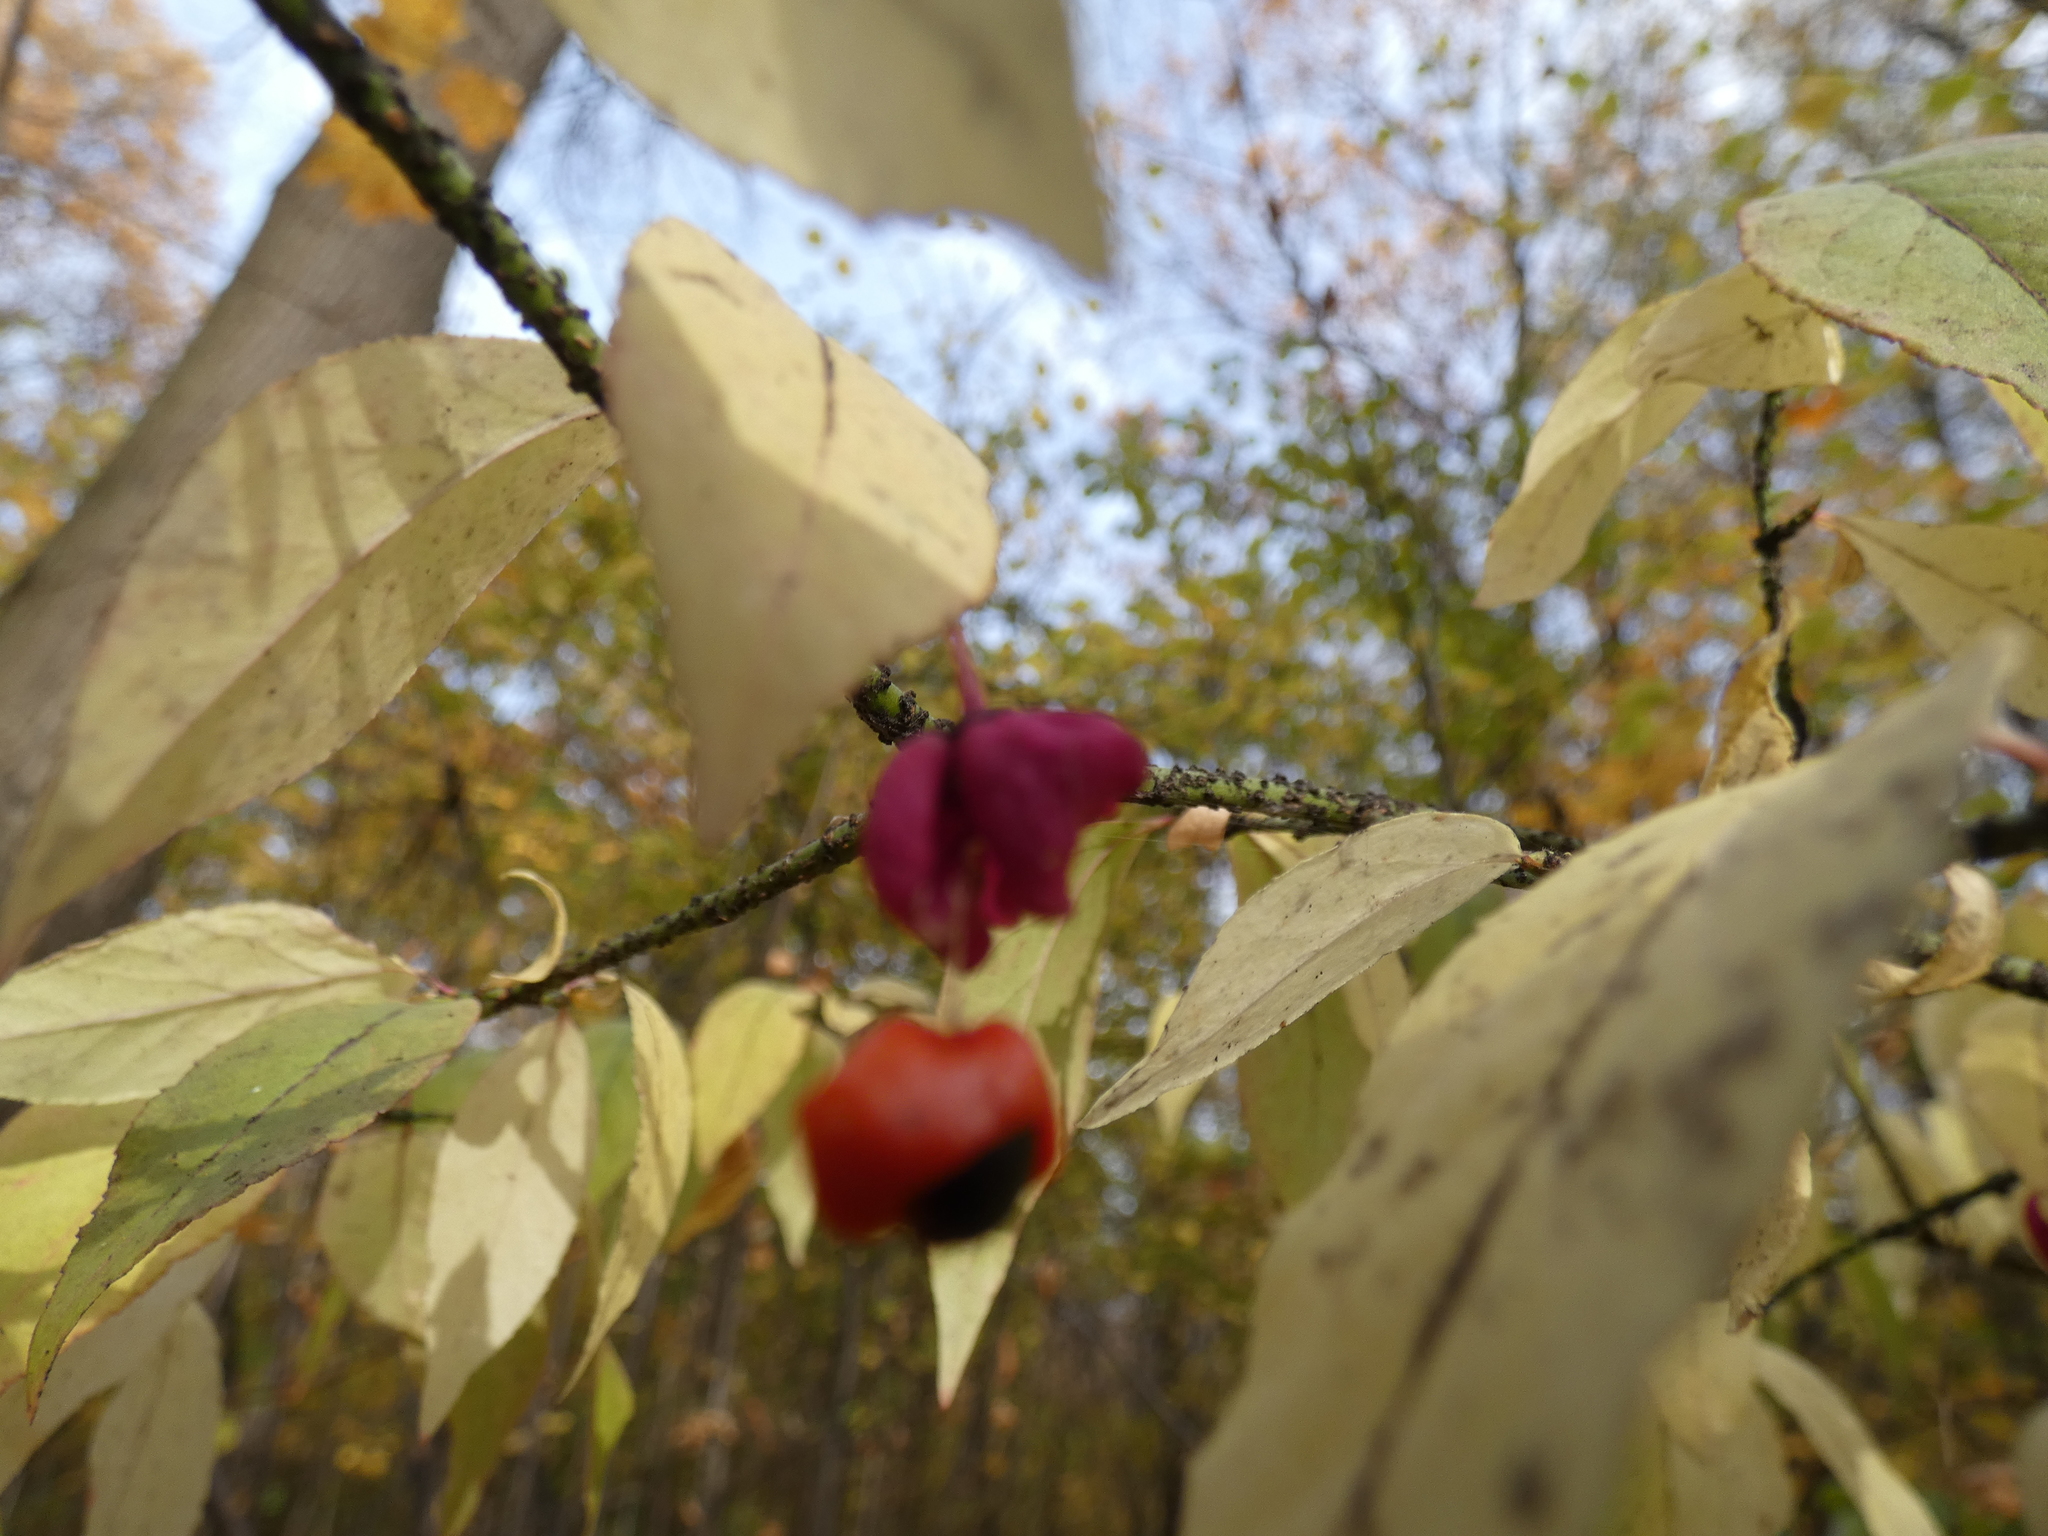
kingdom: Plantae
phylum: Tracheophyta
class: Magnoliopsida
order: Celastrales
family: Celastraceae
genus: Euonymus
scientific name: Euonymus verrucosus
